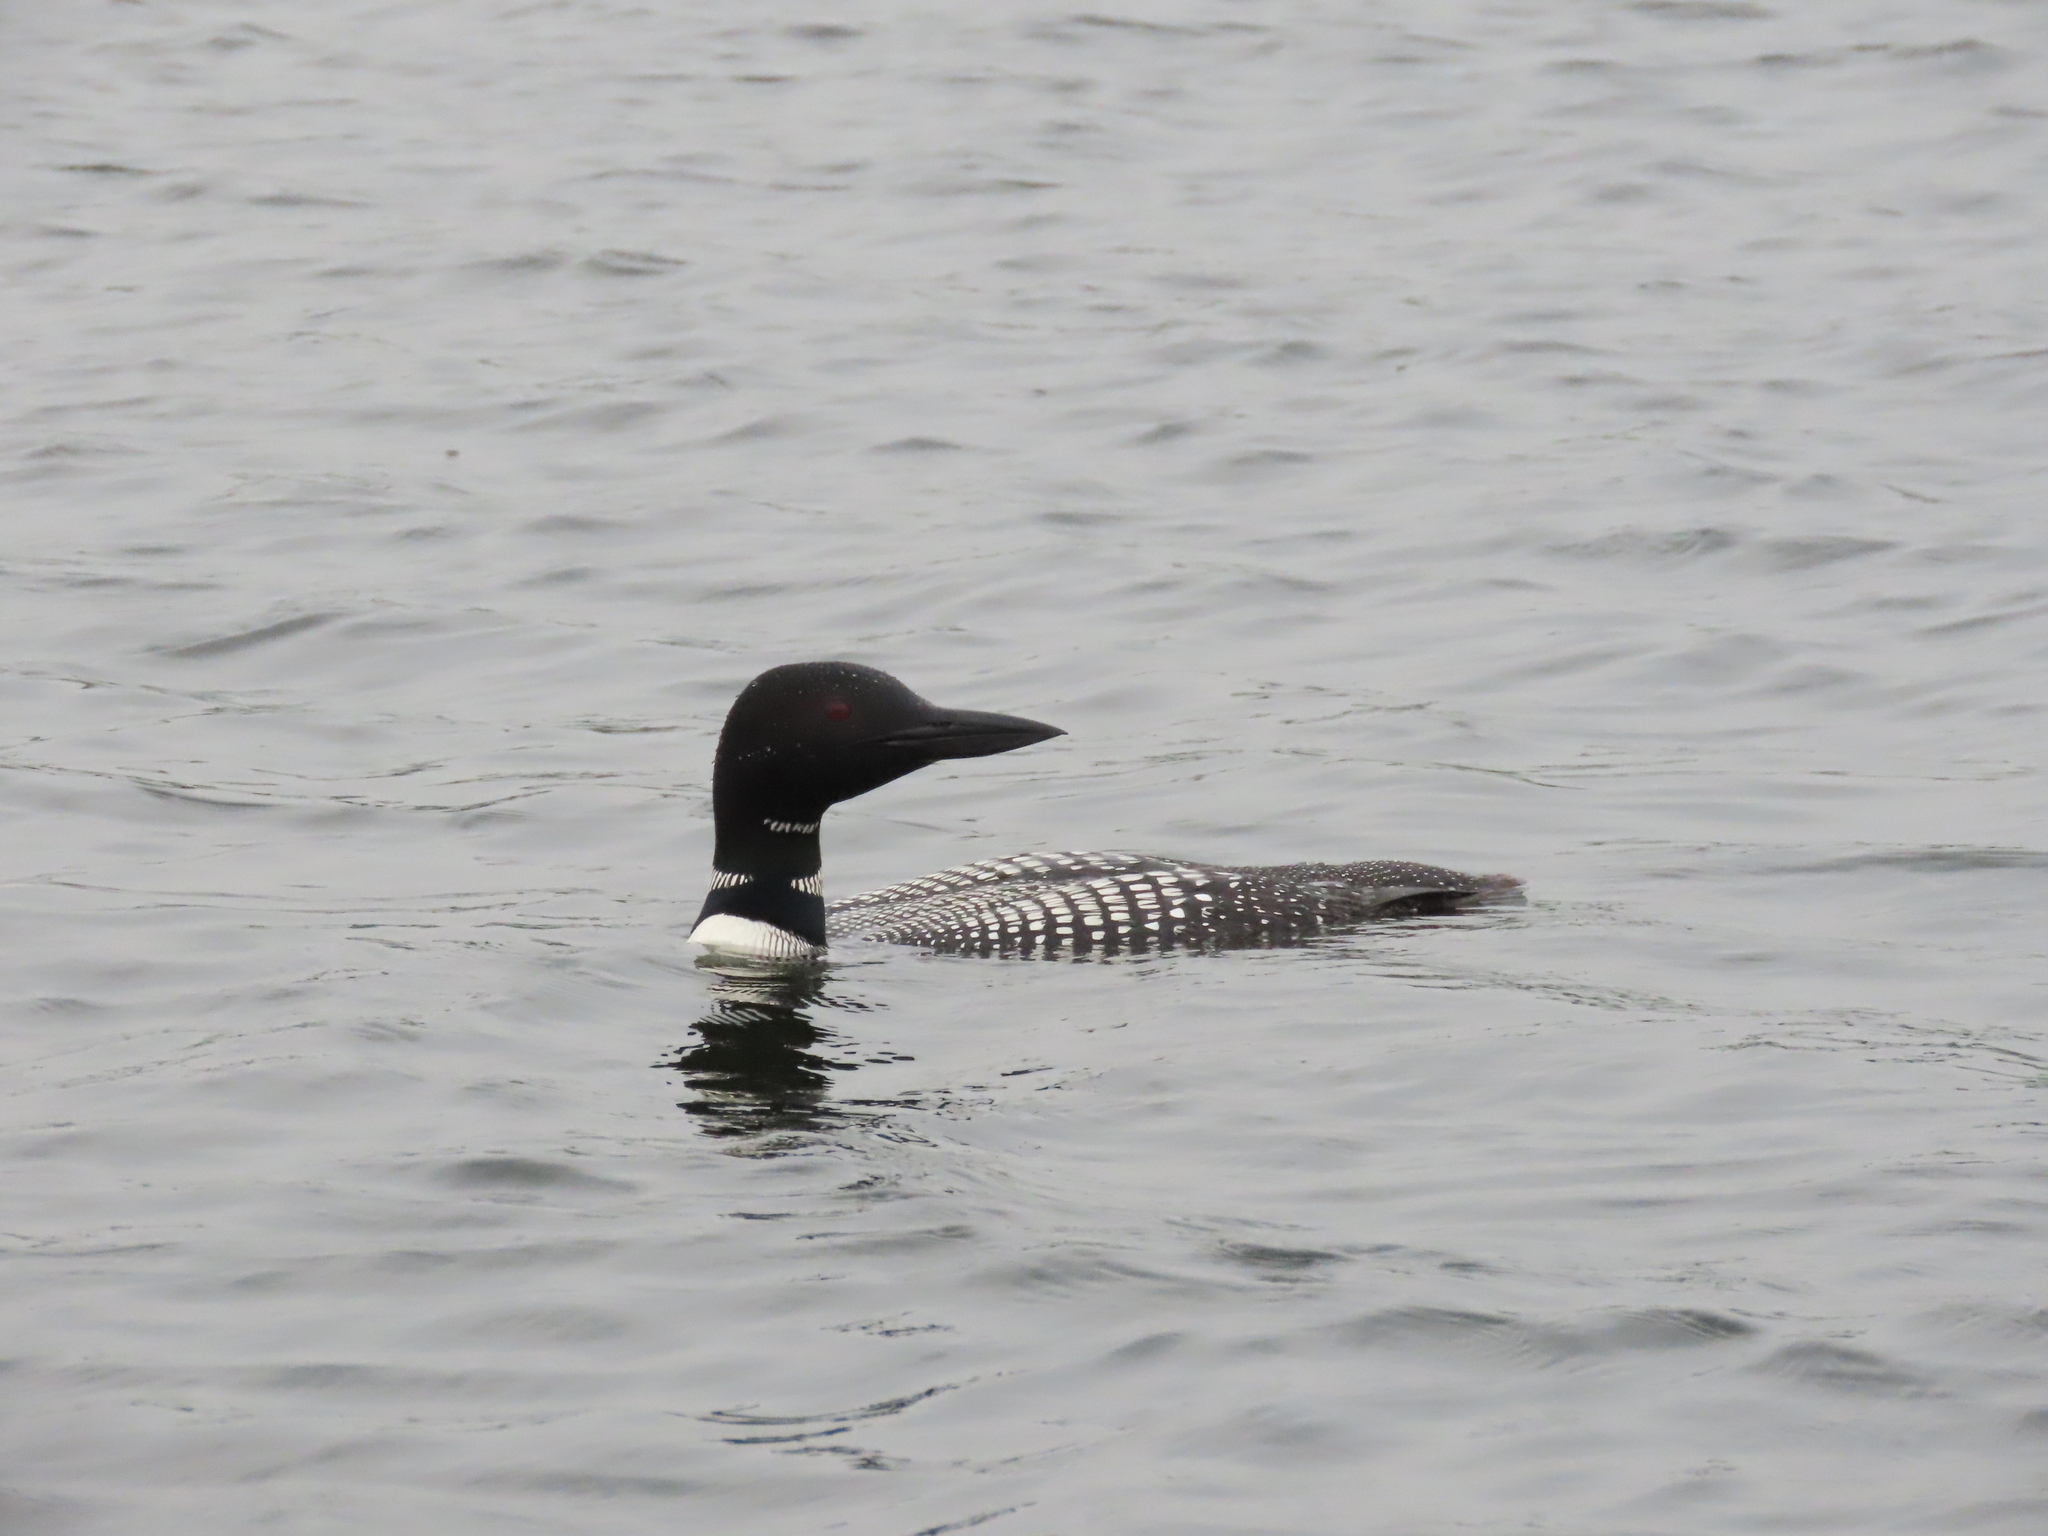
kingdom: Animalia
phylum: Chordata
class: Aves
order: Gaviiformes
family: Gaviidae
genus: Gavia
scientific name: Gavia immer
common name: Common loon
